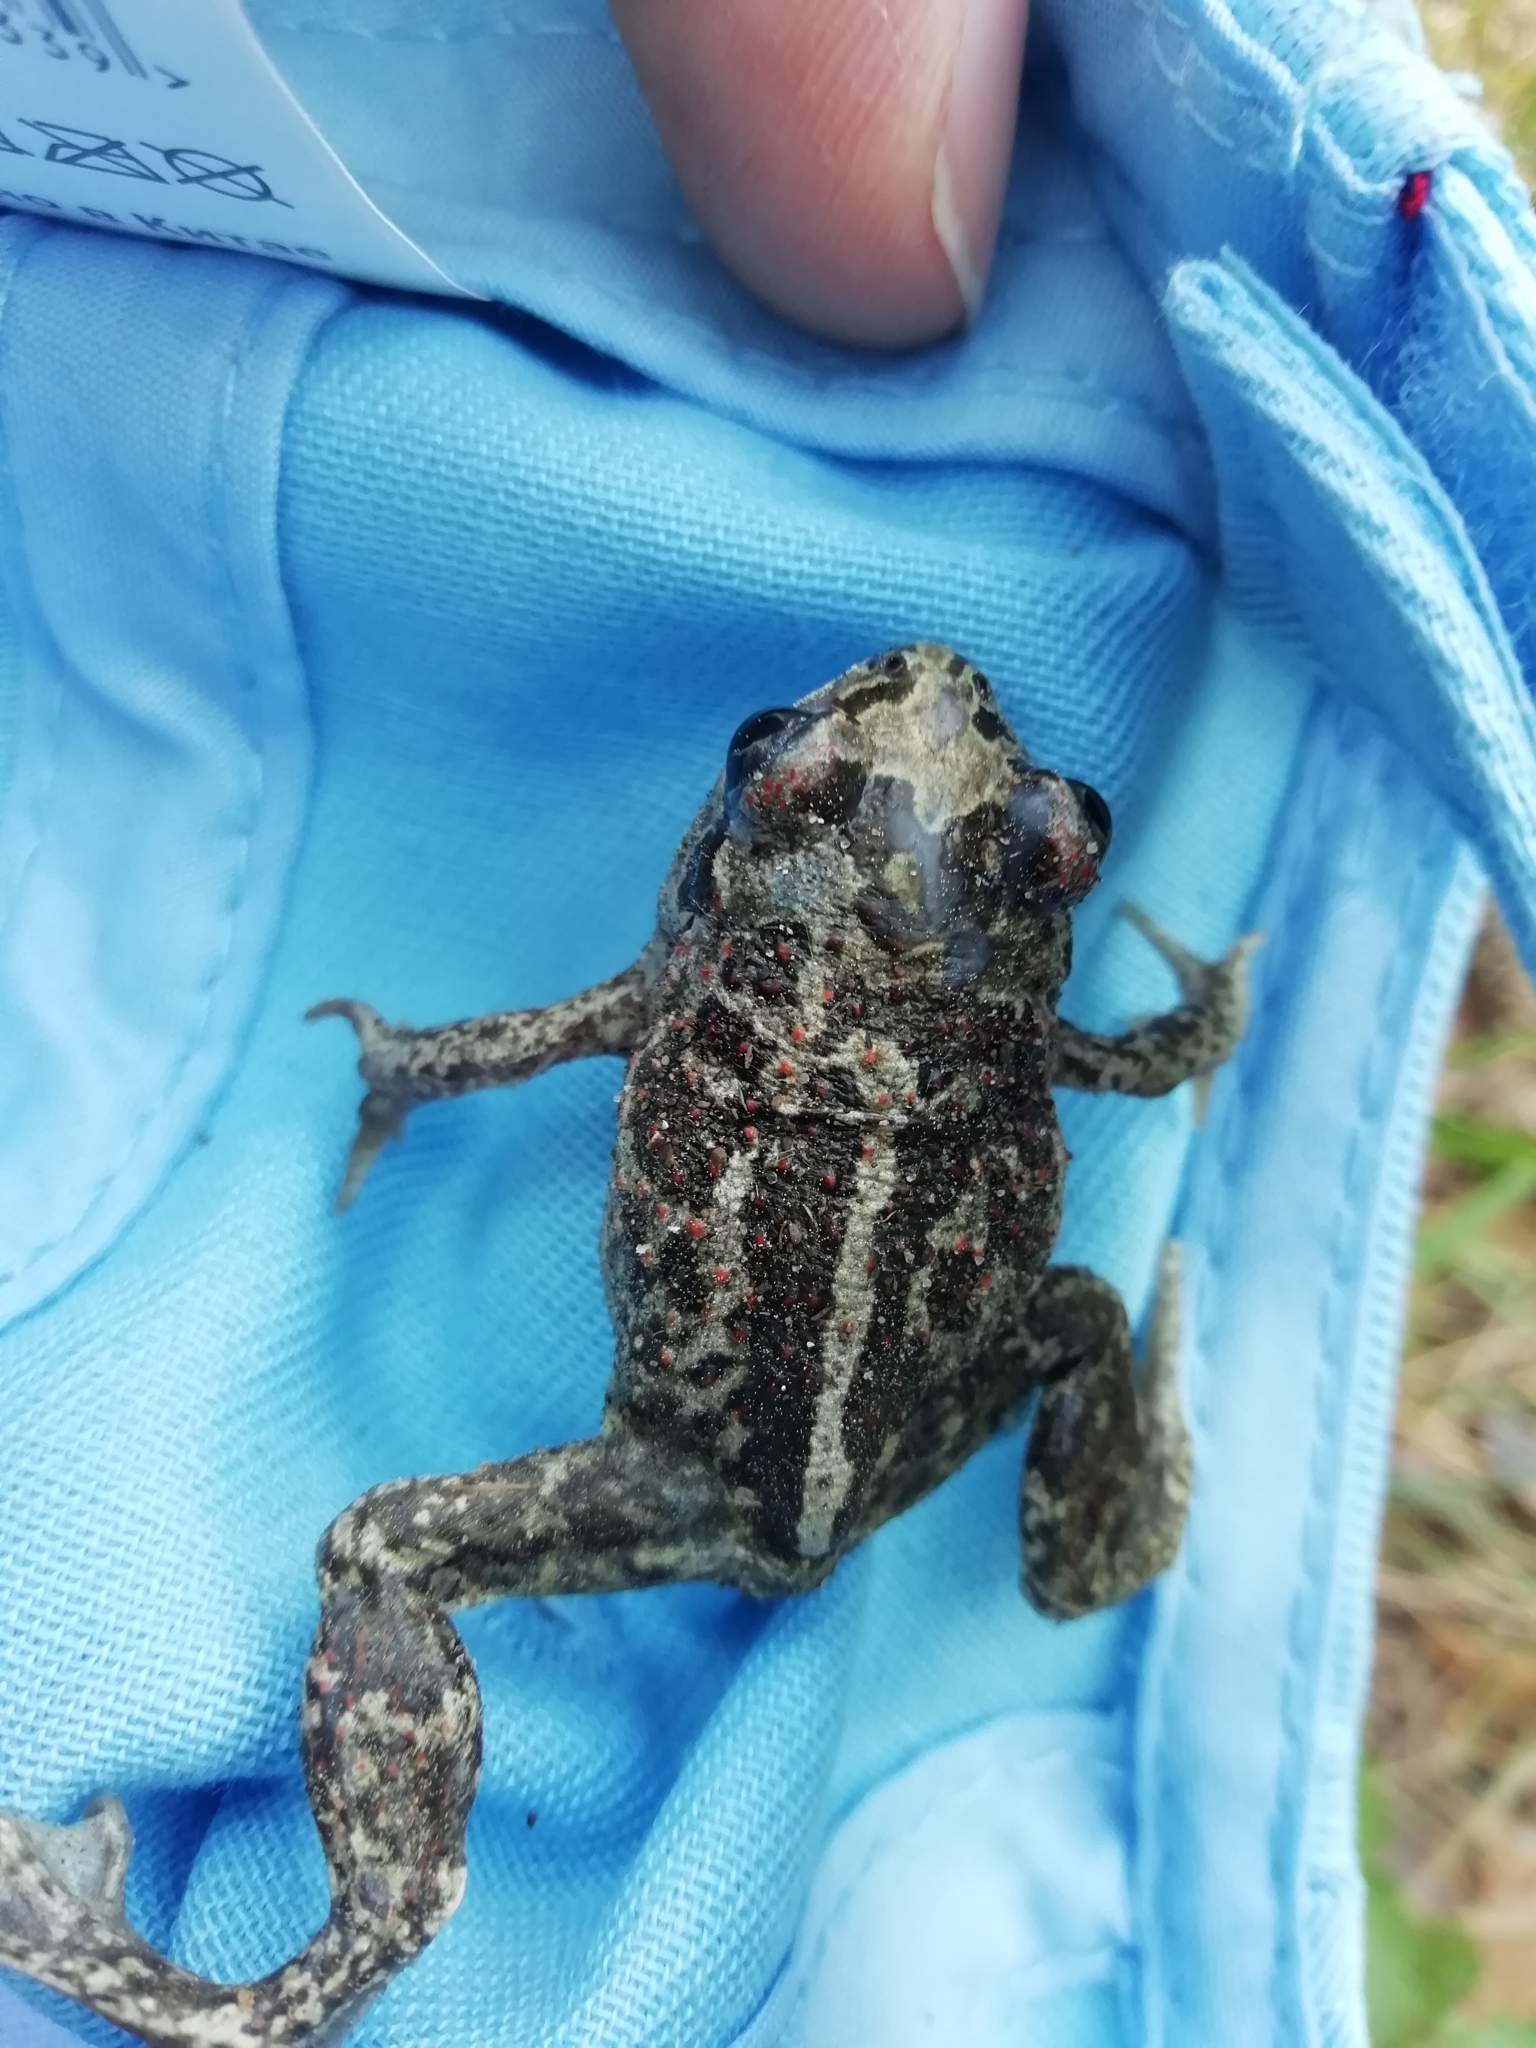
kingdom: Animalia
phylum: Chordata
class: Amphibia
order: Anura
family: Pelobatidae
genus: Pelobates
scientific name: Pelobates vespertinus
